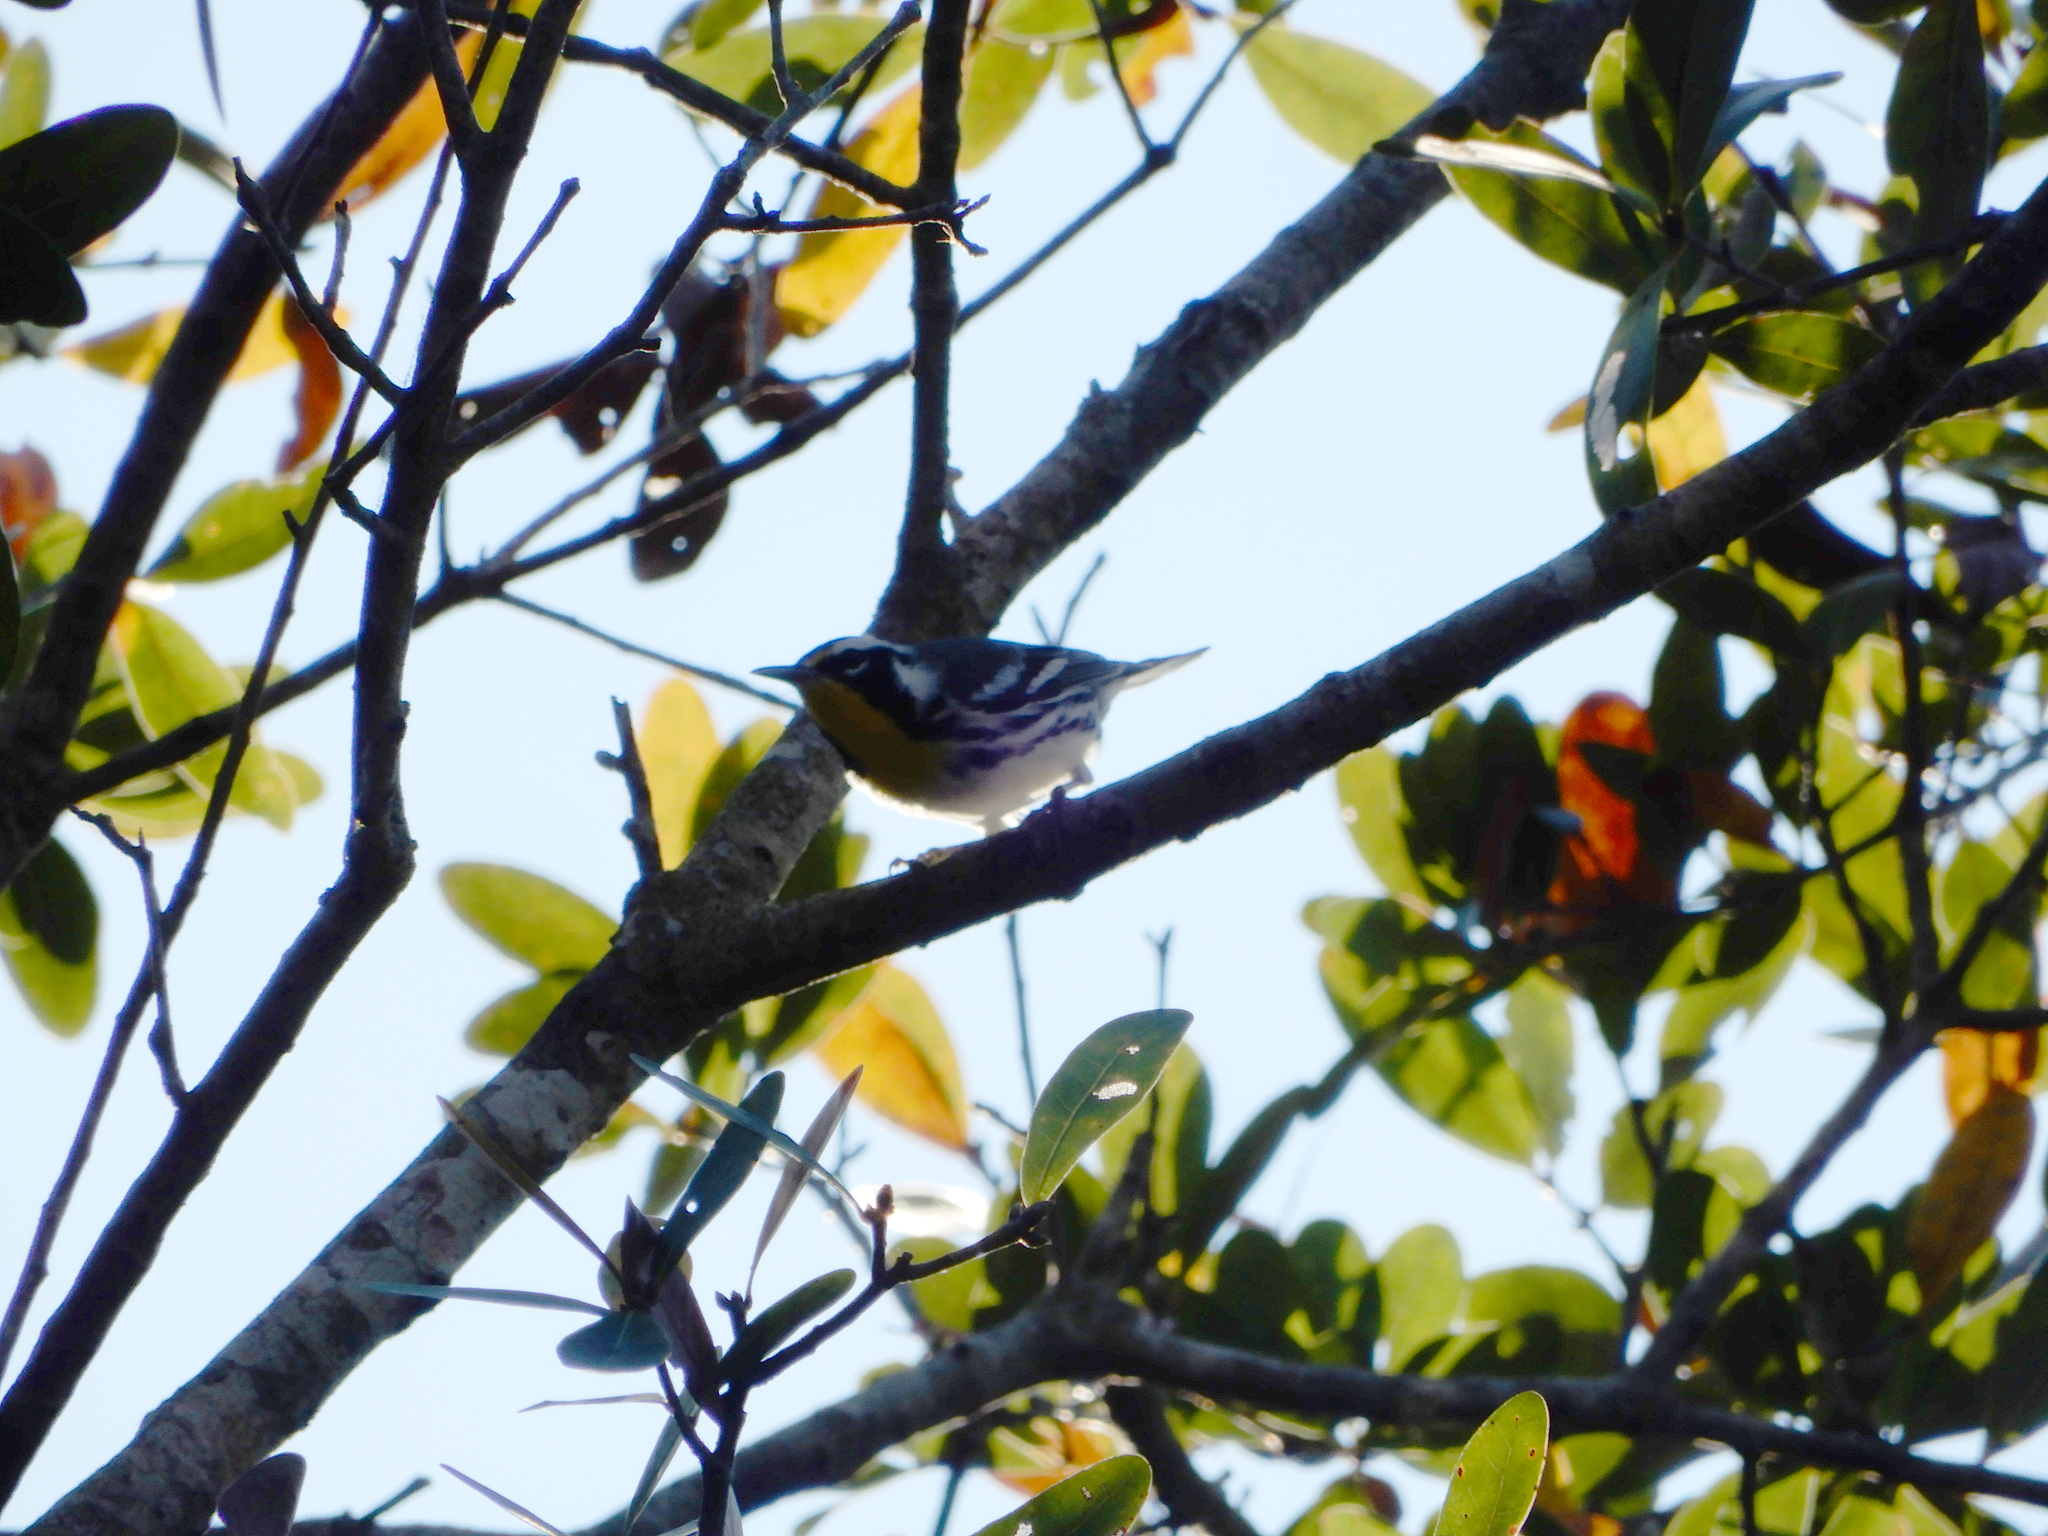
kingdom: Animalia
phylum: Chordata
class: Aves
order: Passeriformes
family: Parulidae
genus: Setophaga
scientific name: Setophaga dominica
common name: Yellow-throated warbler
